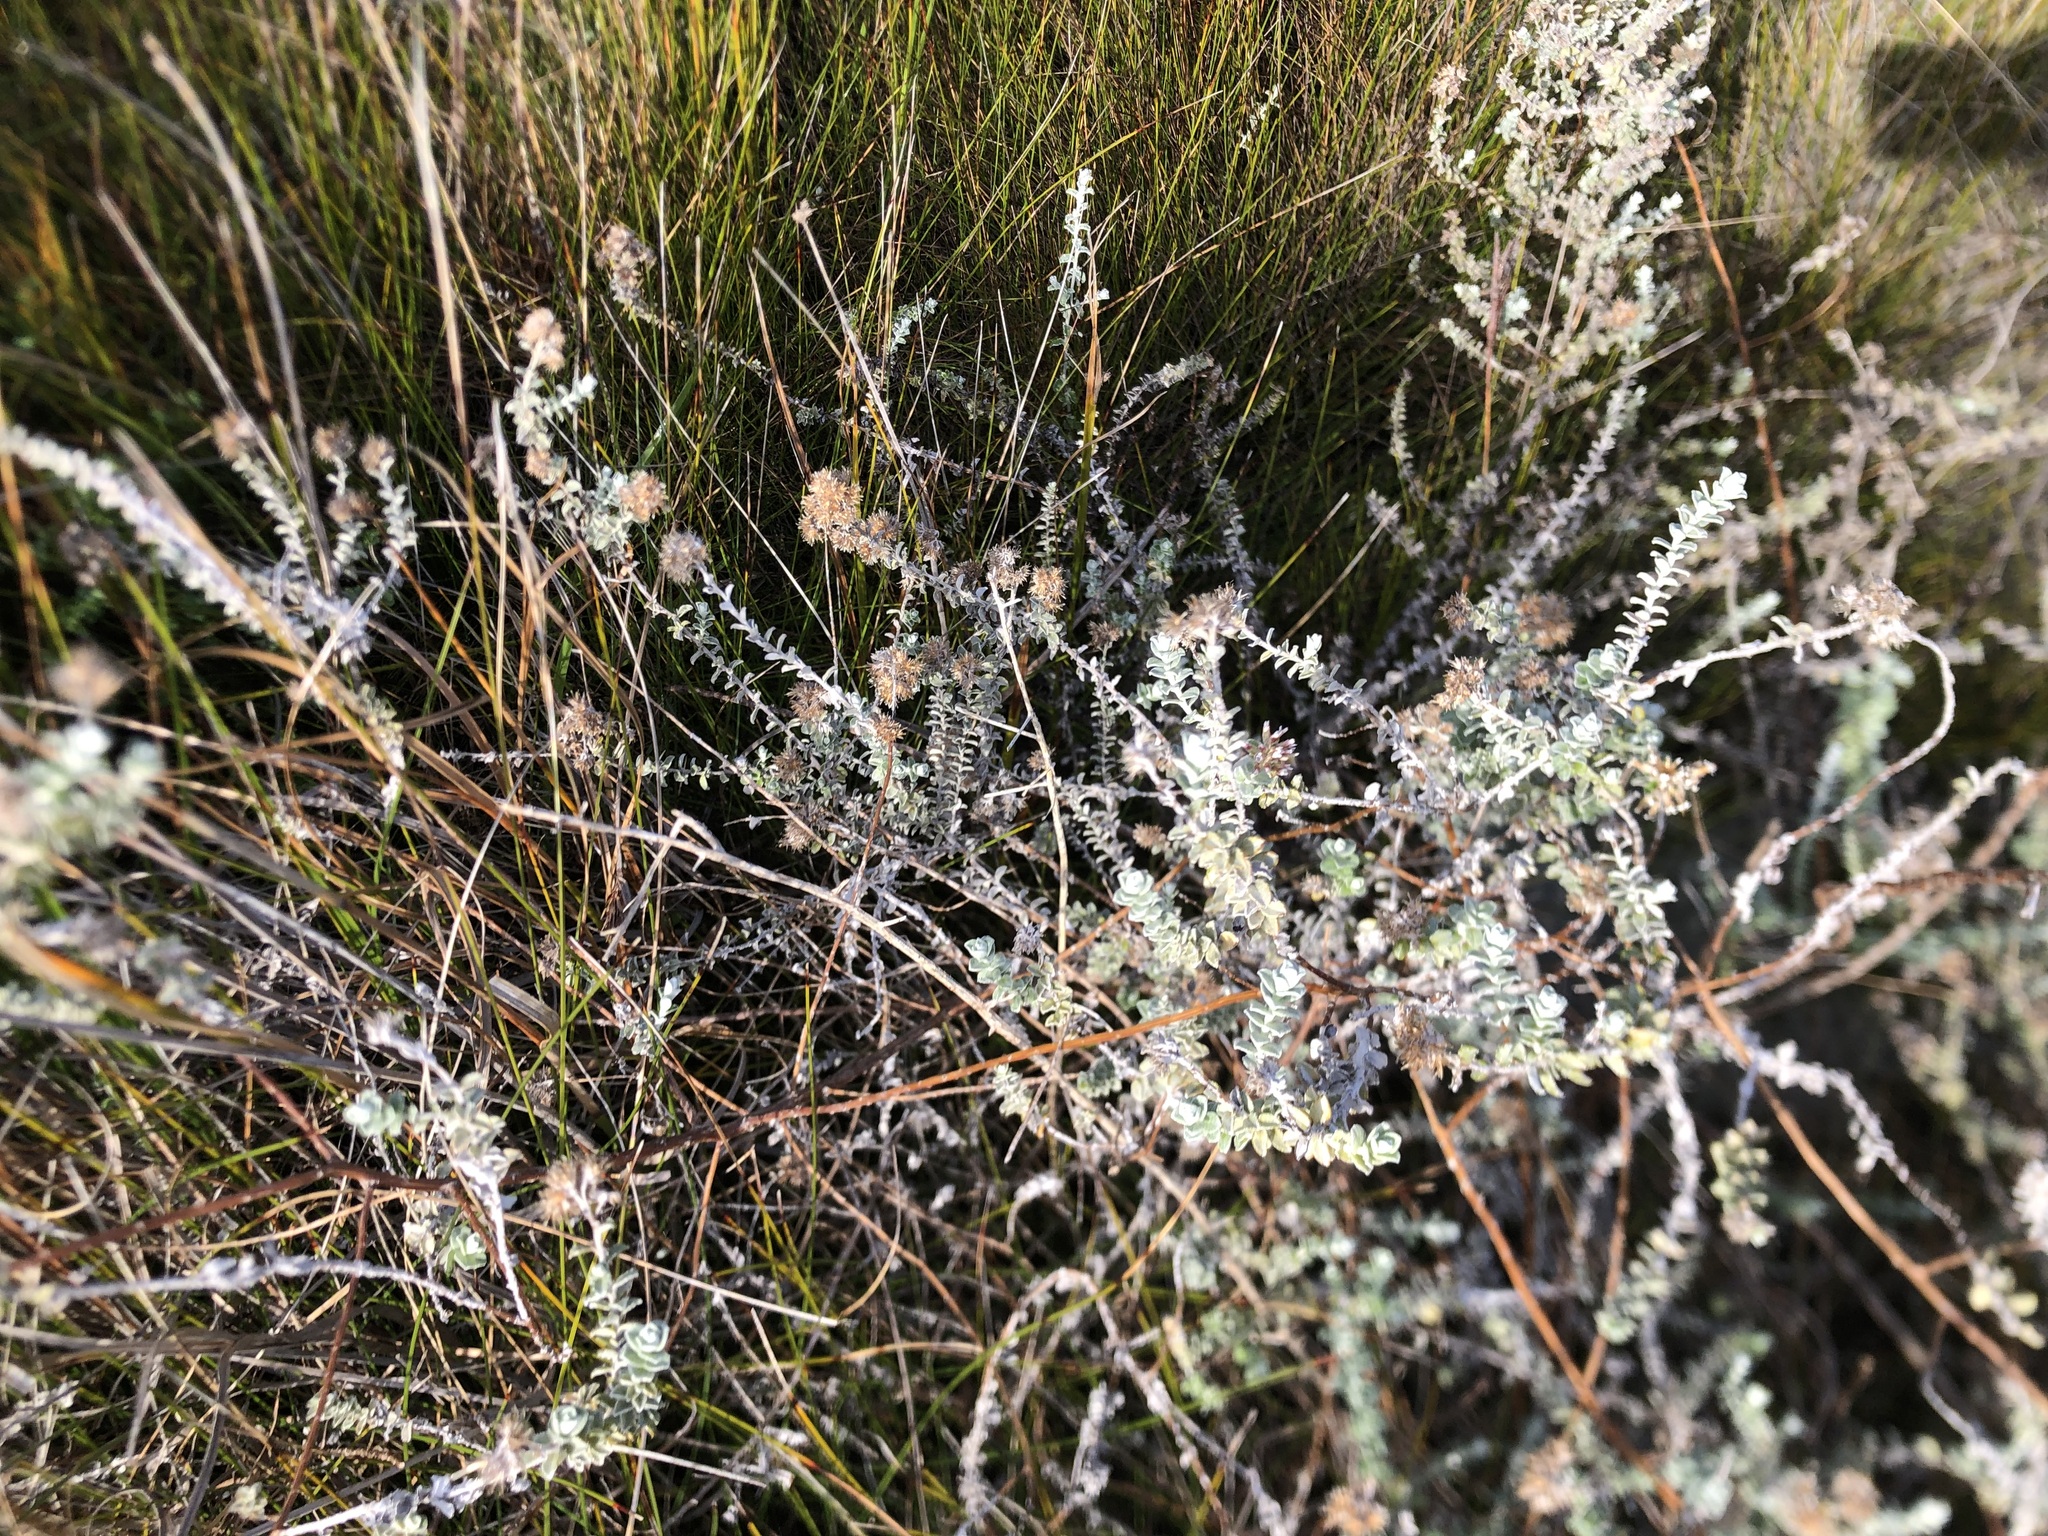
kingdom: Plantae
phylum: Tracheophyta
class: Magnoliopsida
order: Asterales
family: Asteraceae
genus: Plecostachys
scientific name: Plecostachys serpyllifolia
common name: Petite licorice
